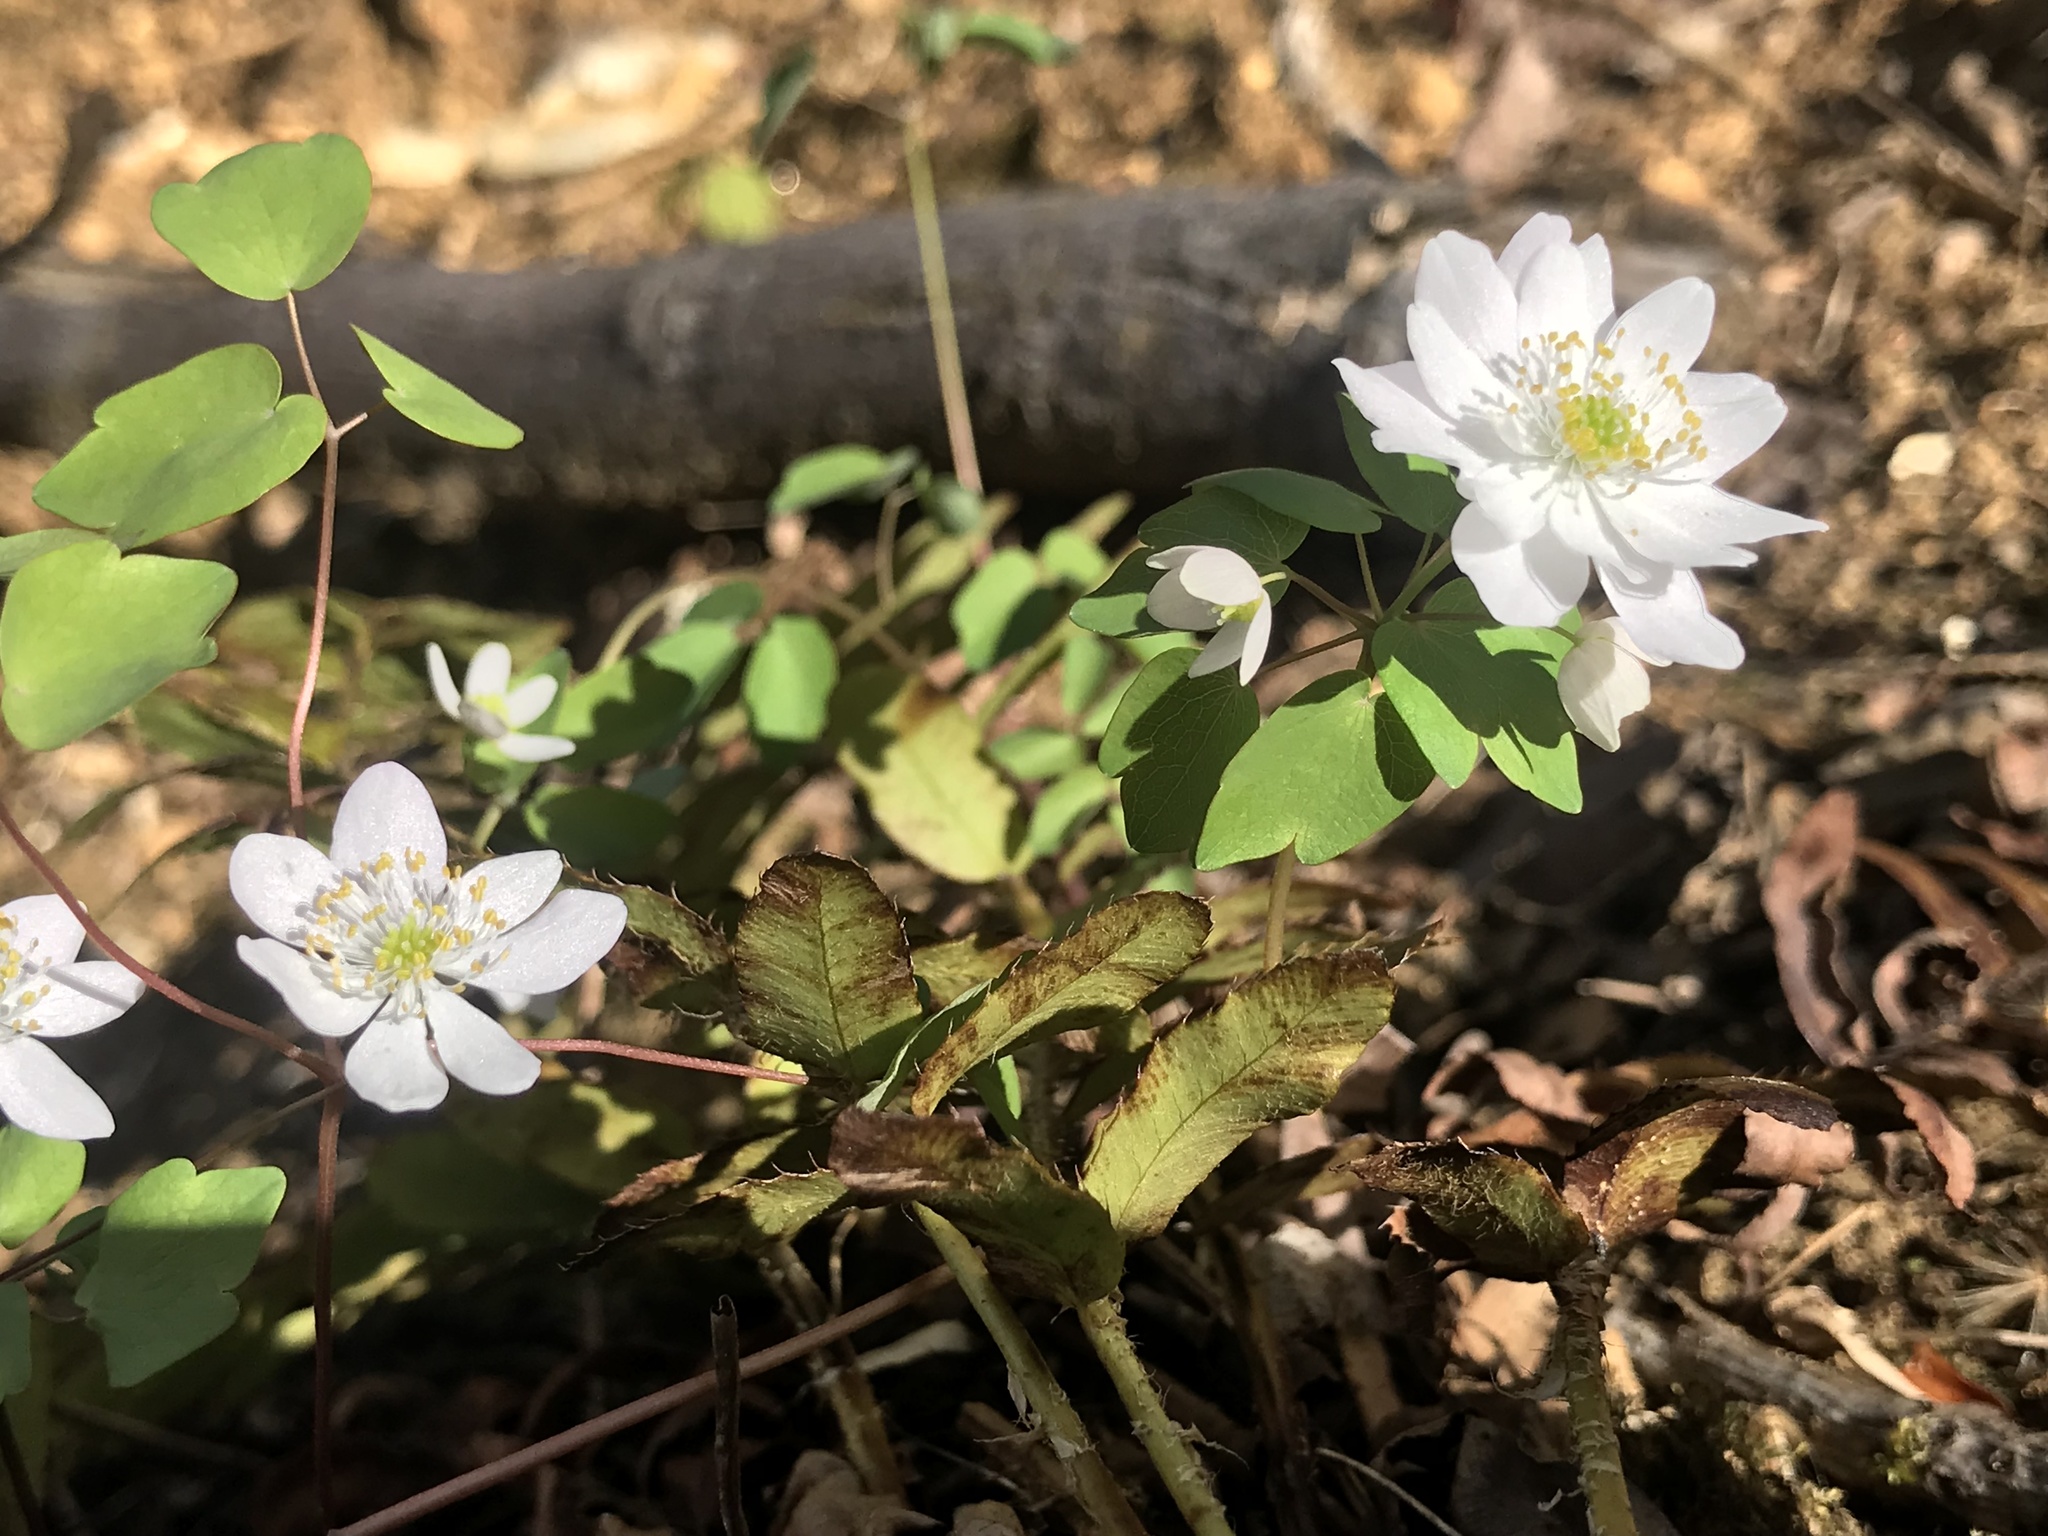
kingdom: Plantae
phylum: Tracheophyta
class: Magnoliopsida
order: Ranunculales
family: Ranunculaceae
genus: Thalictrum
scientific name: Thalictrum thalictroides
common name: Rue-anemone
